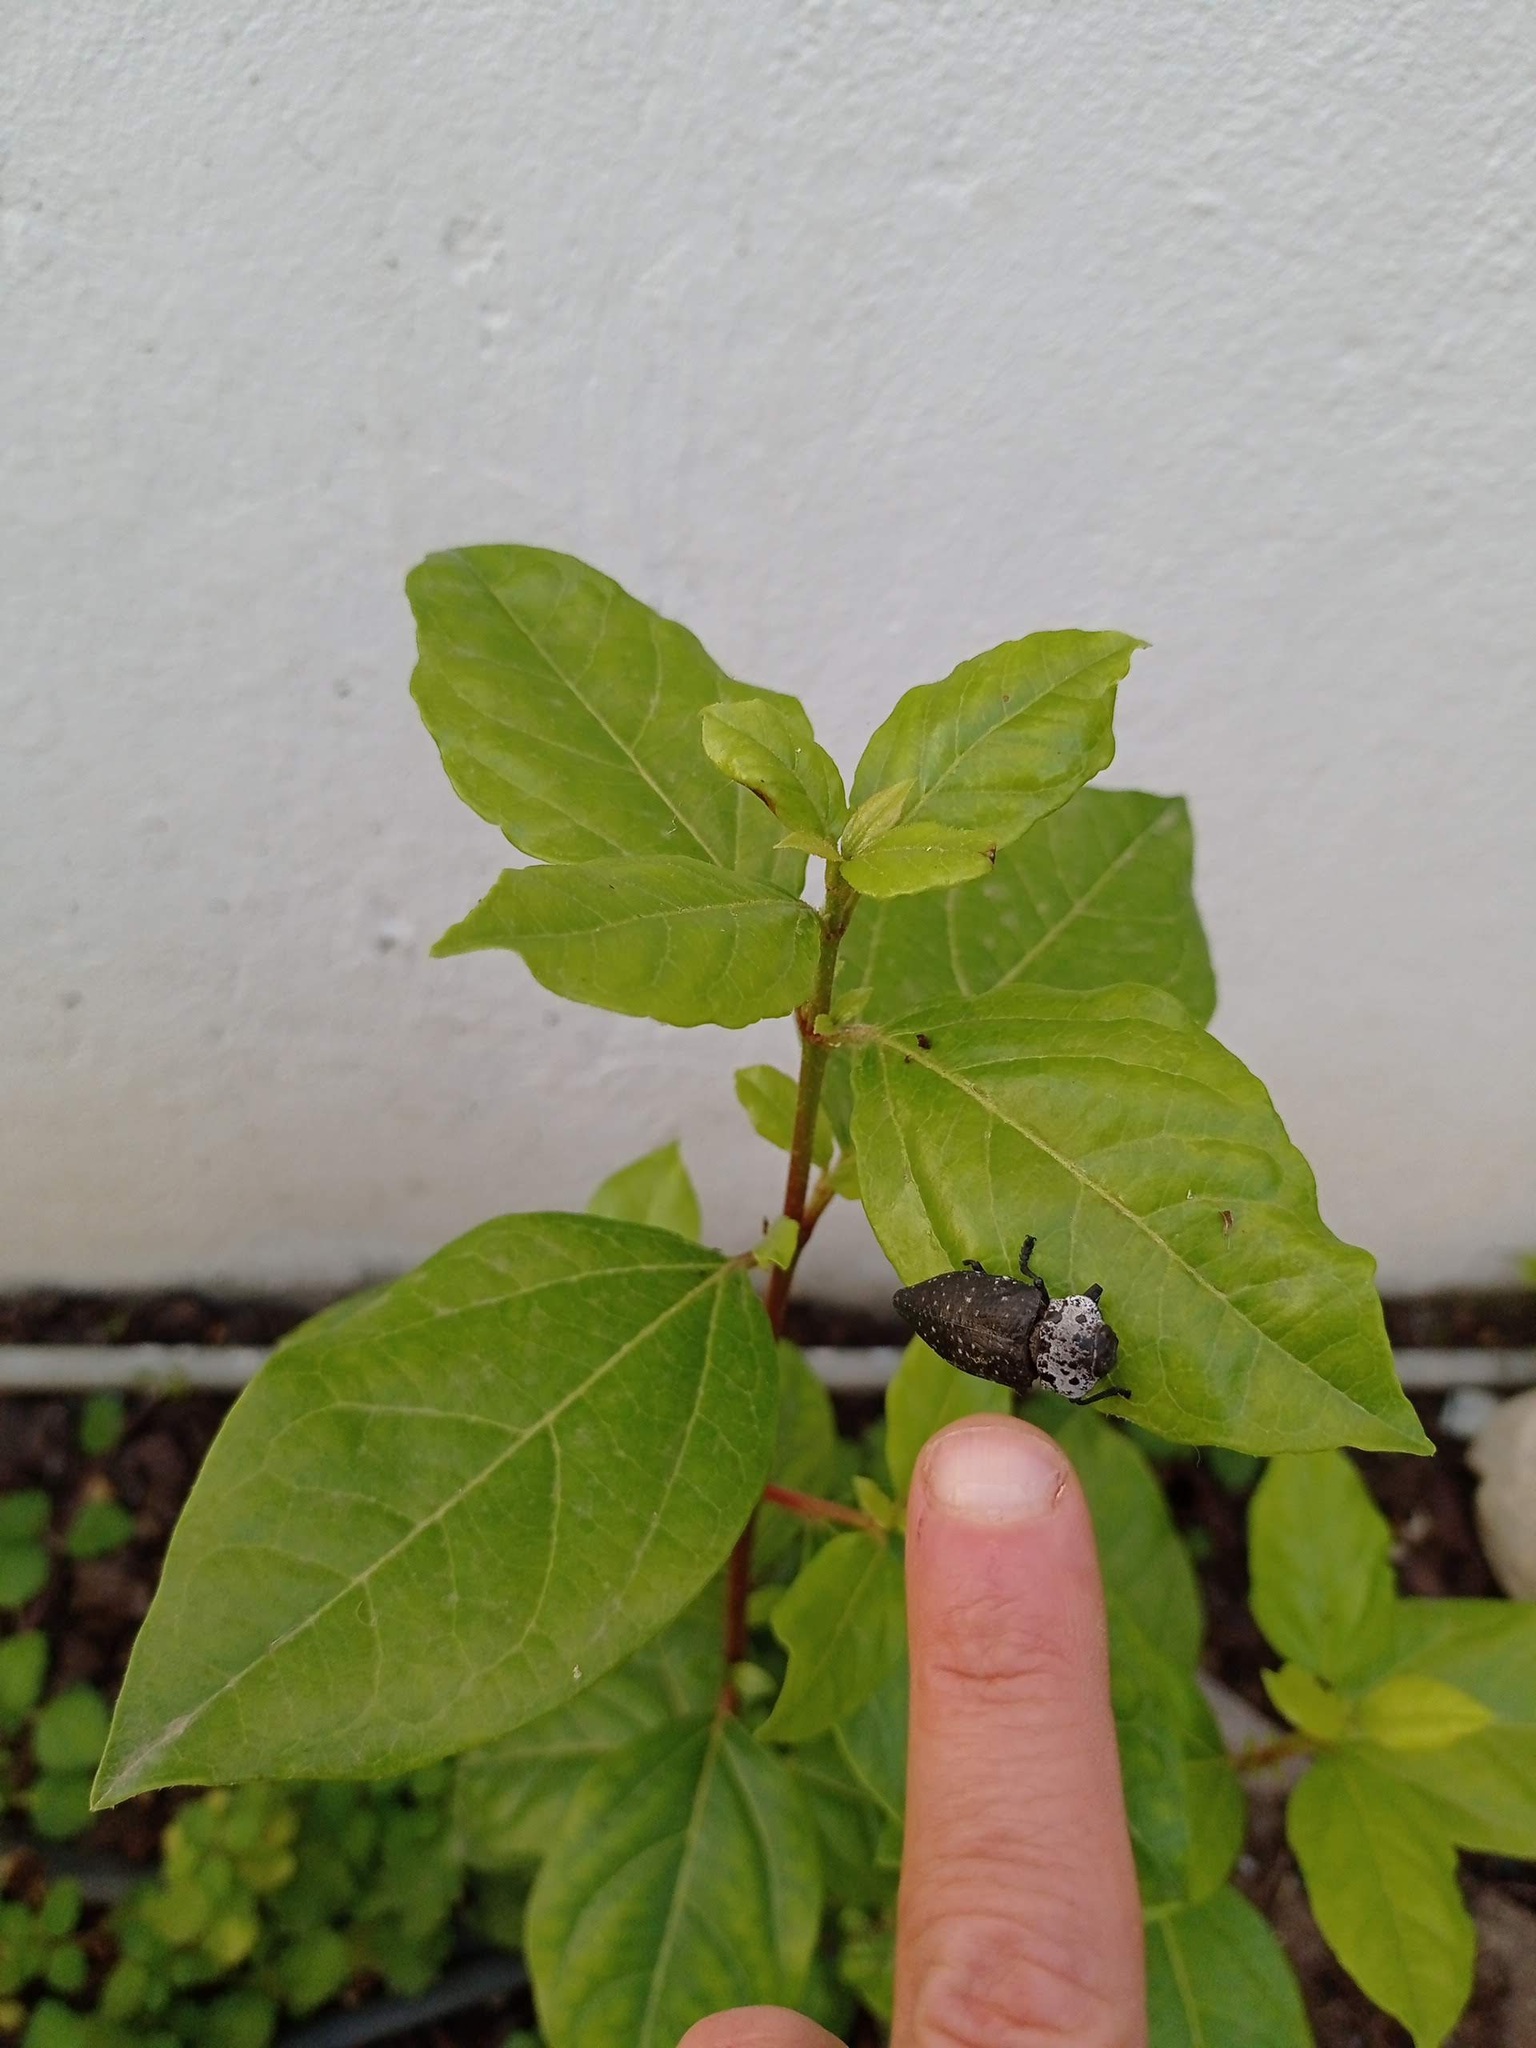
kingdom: Animalia
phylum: Arthropoda
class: Insecta
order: Coleoptera
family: Buprestidae
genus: Capnodis
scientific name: Capnodis tenebrionis
